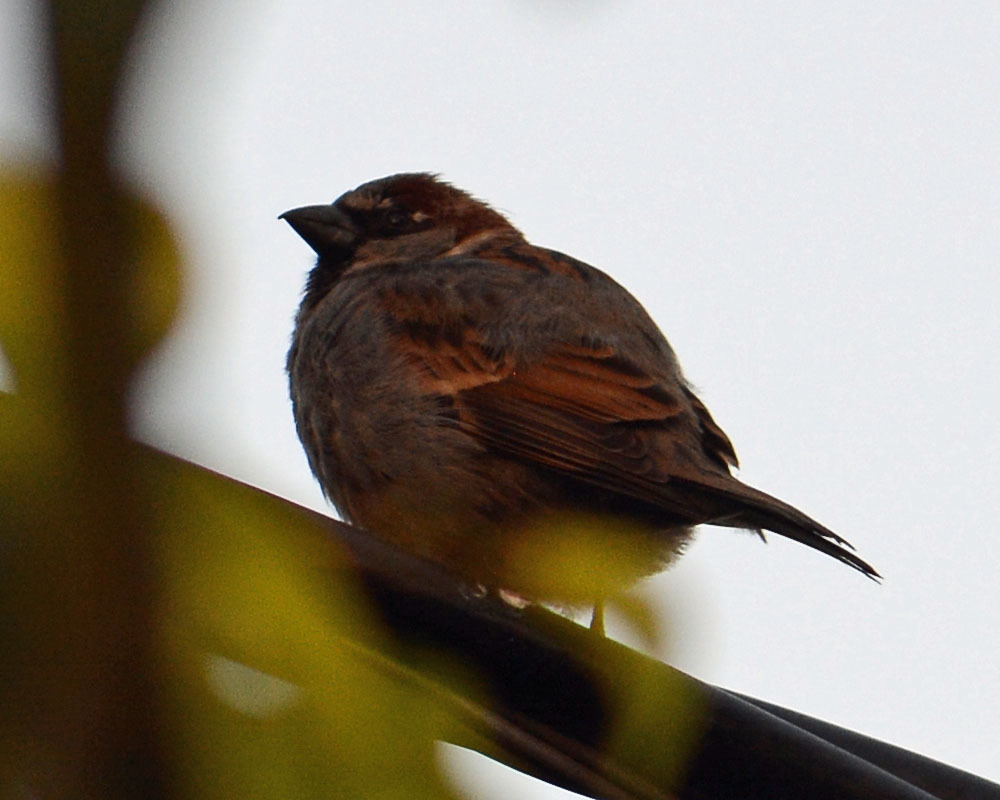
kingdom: Animalia
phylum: Chordata
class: Aves
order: Passeriformes
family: Passeridae
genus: Passer
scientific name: Passer domesticus
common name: House sparrow
